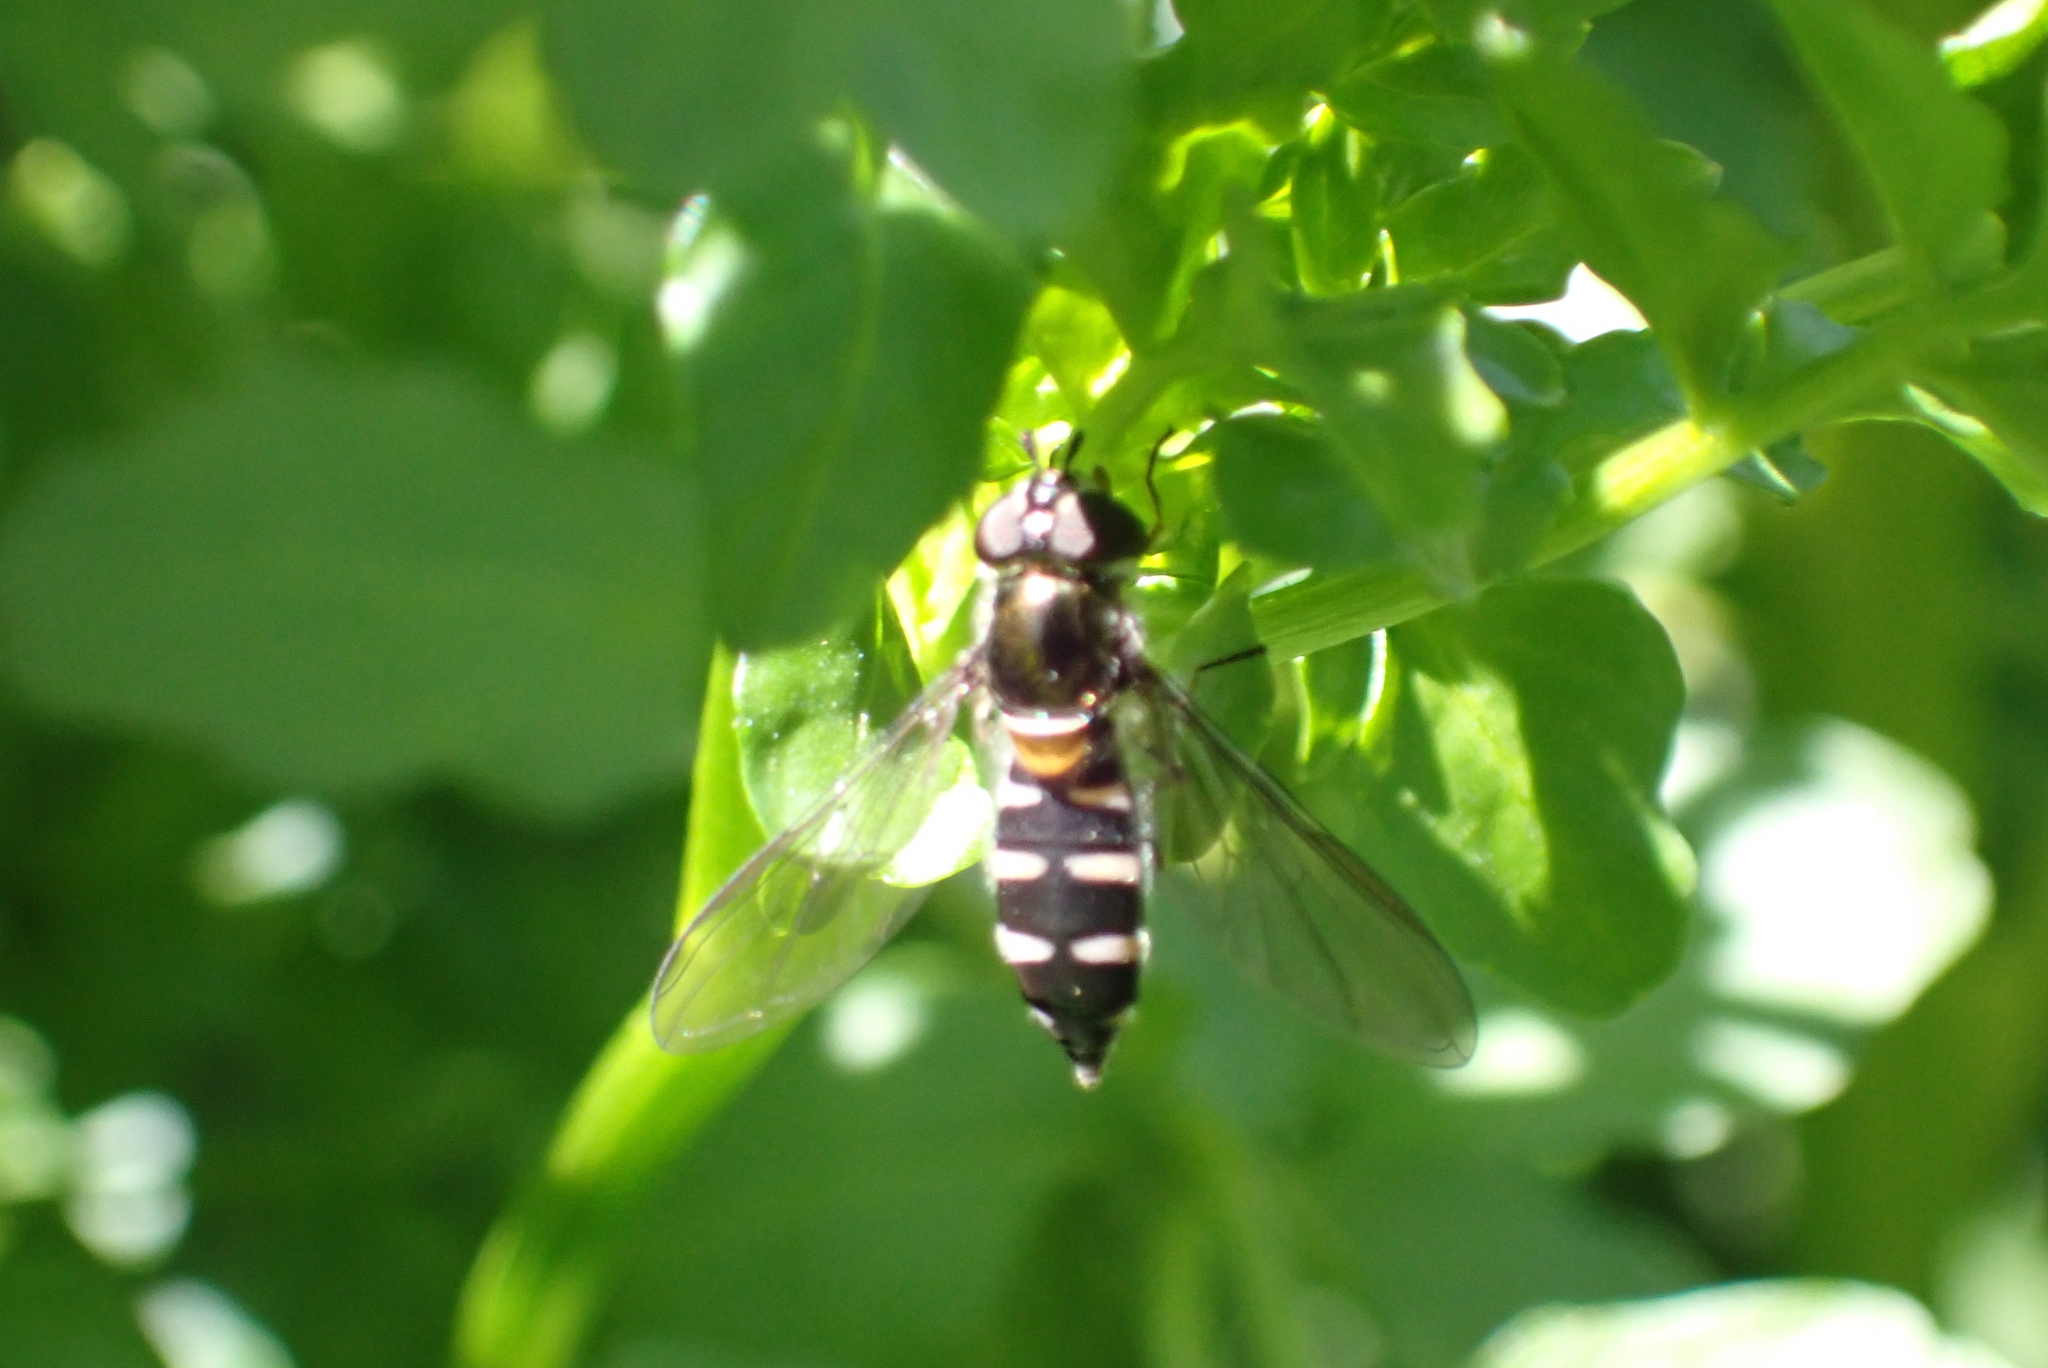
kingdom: Animalia
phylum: Arthropoda
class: Insecta
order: Diptera
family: Syrphidae
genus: Melangyna
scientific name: Melangyna novaezelandiae
